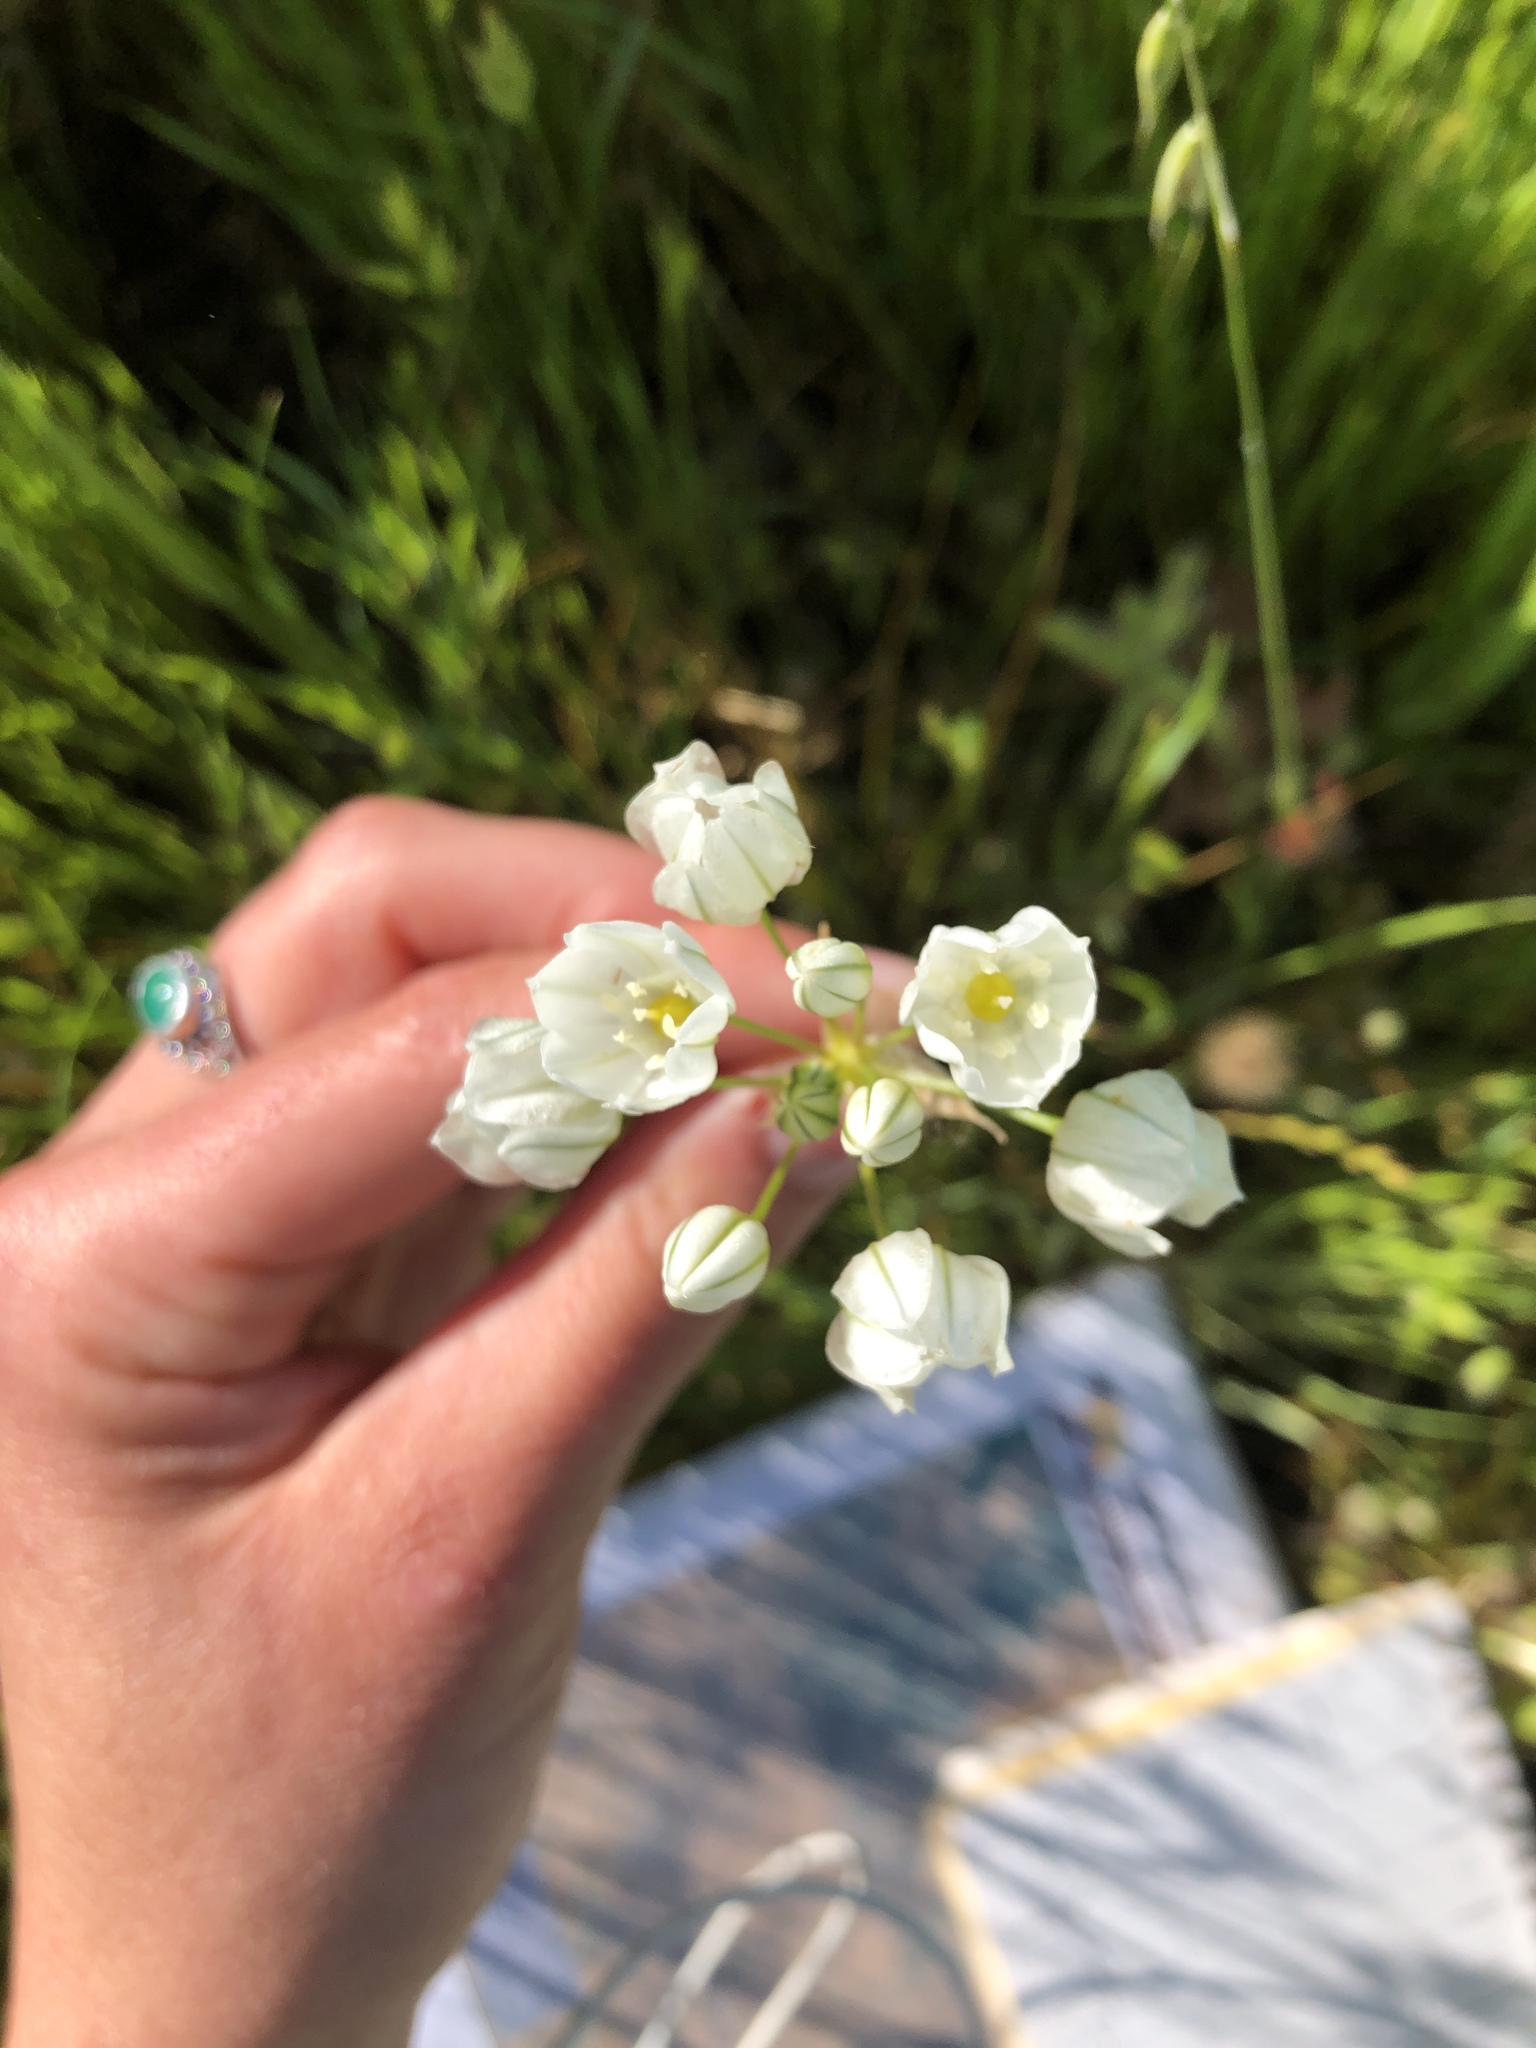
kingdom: Plantae
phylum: Tracheophyta
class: Liliopsida
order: Asparagales
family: Asparagaceae
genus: Triteleia
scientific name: Triteleia hyacinthina
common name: White brodiaea
